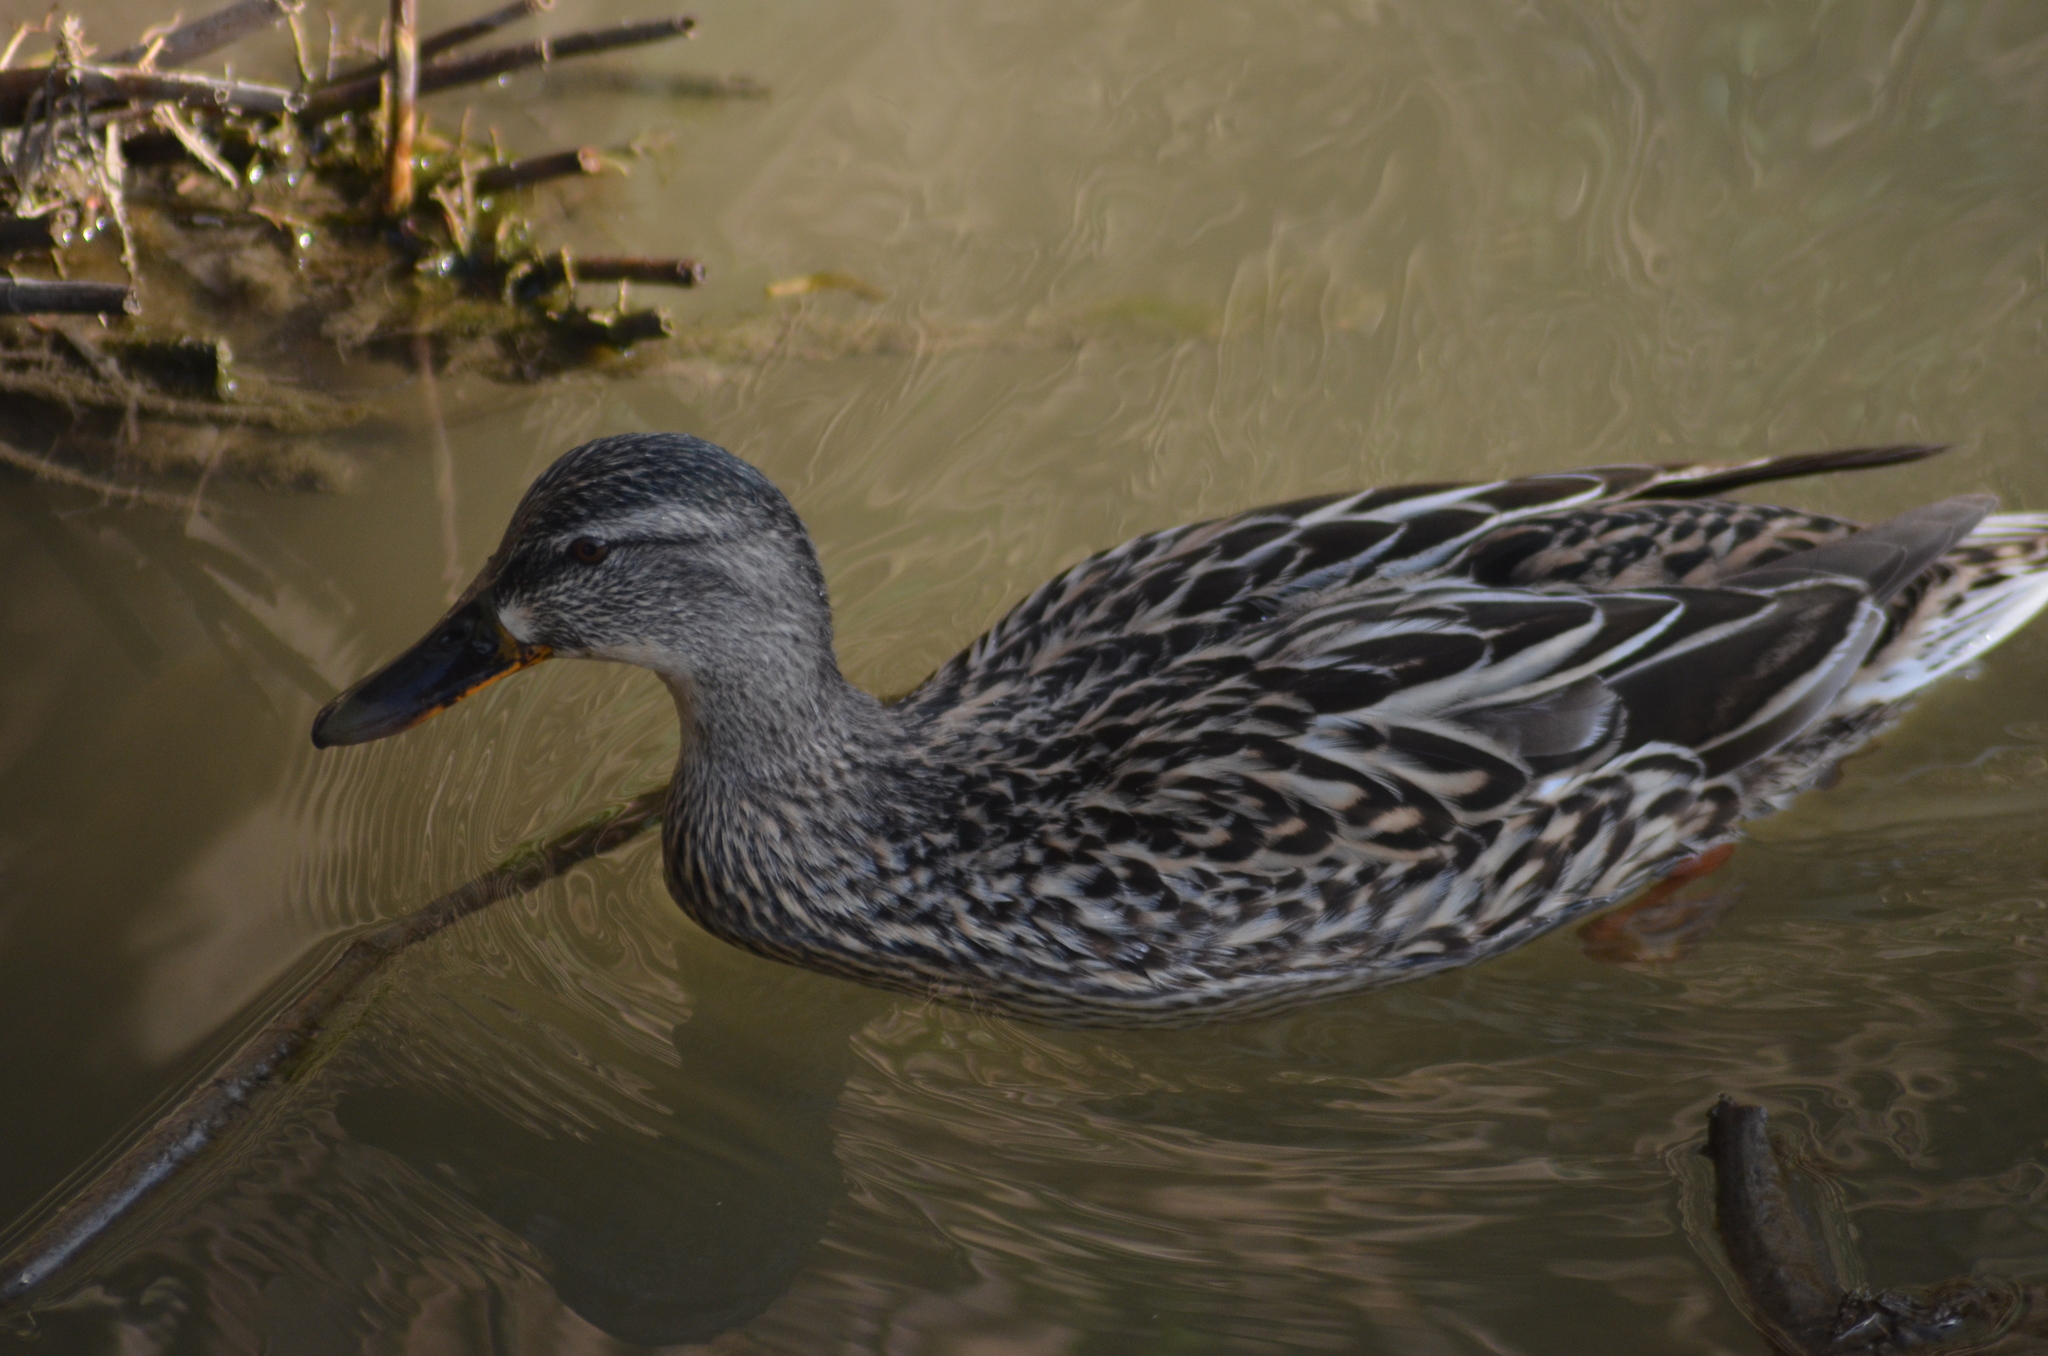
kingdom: Animalia
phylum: Chordata
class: Aves
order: Anseriformes
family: Anatidae
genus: Anas
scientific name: Anas platyrhynchos
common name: Mallard
